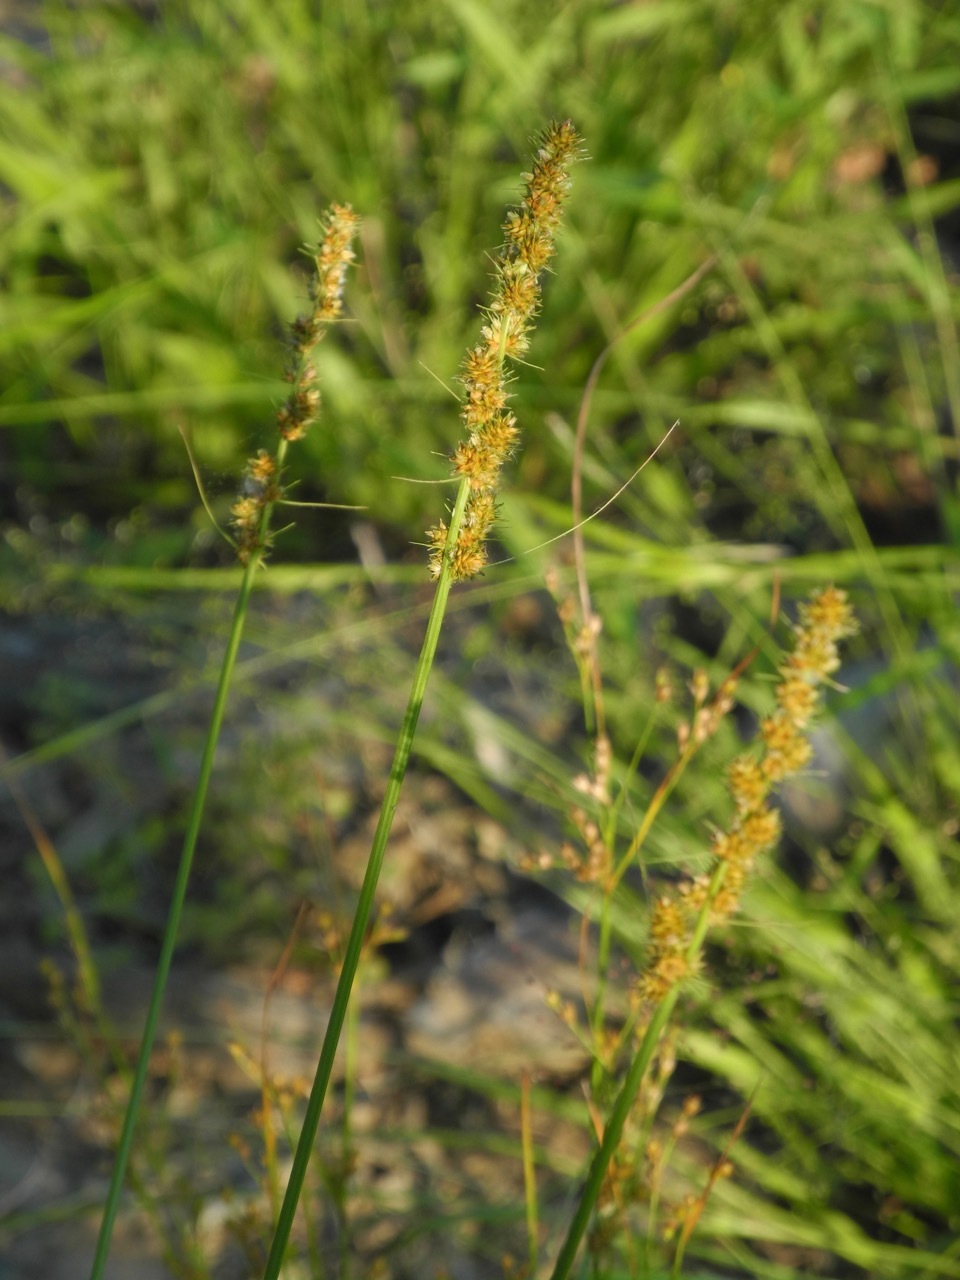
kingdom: Plantae
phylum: Tracheophyta
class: Liliopsida
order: Poales
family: Cyperaceae
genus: Carex
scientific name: Carex vulpinoidea
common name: American fox-sedge
